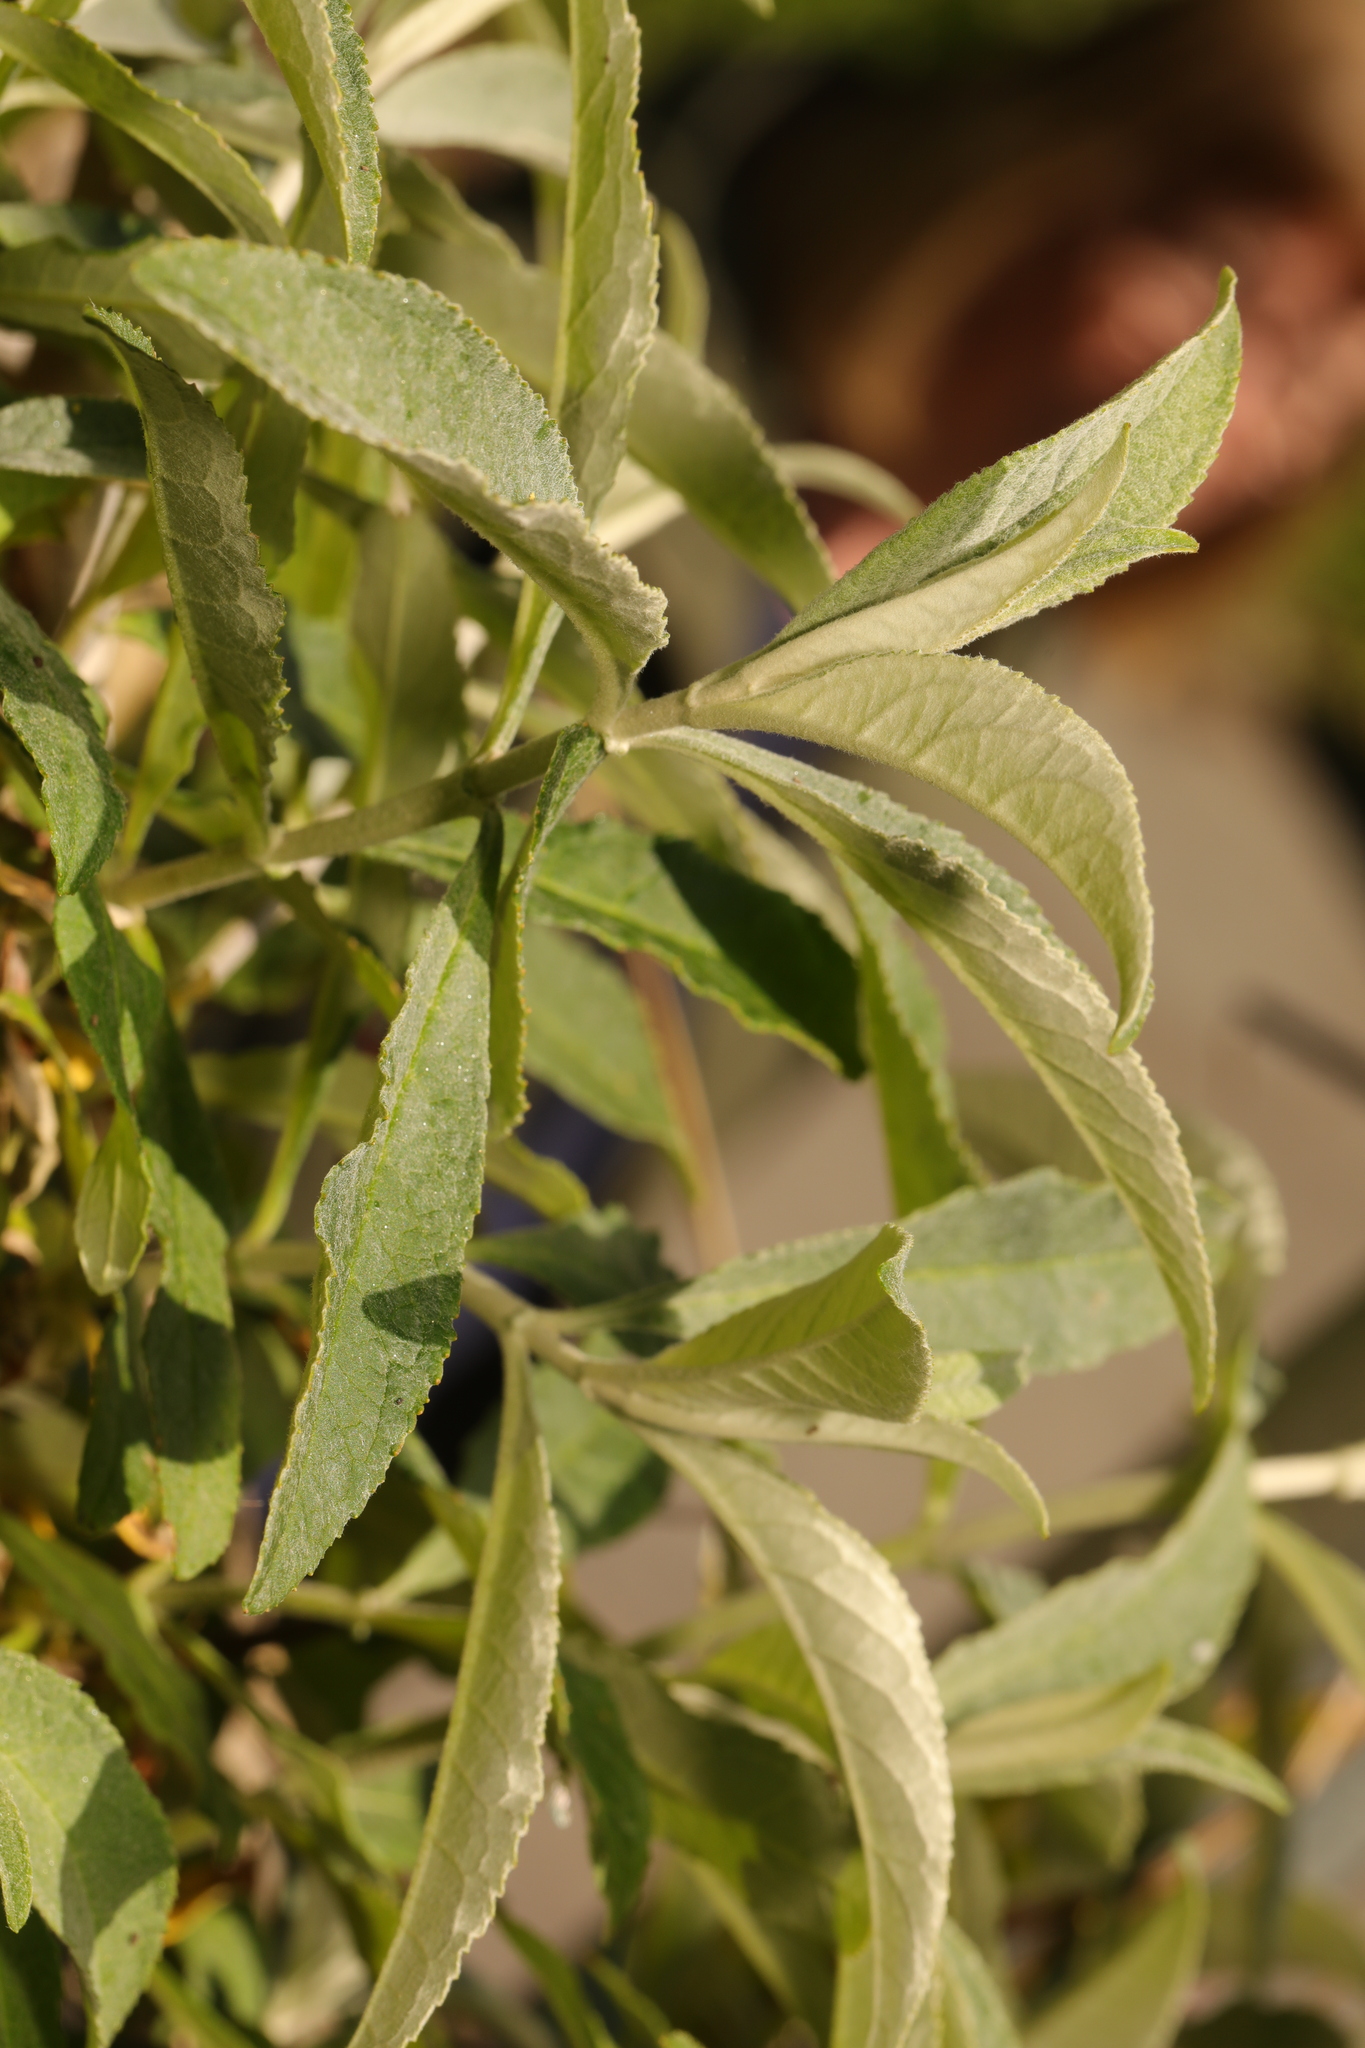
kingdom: Plantae
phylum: Tracheophyta
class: Magnoliopsida
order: Lamiales
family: Scrophulariaceae
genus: Buddleja
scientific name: Buddleja davidii
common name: Butterfly-bush
